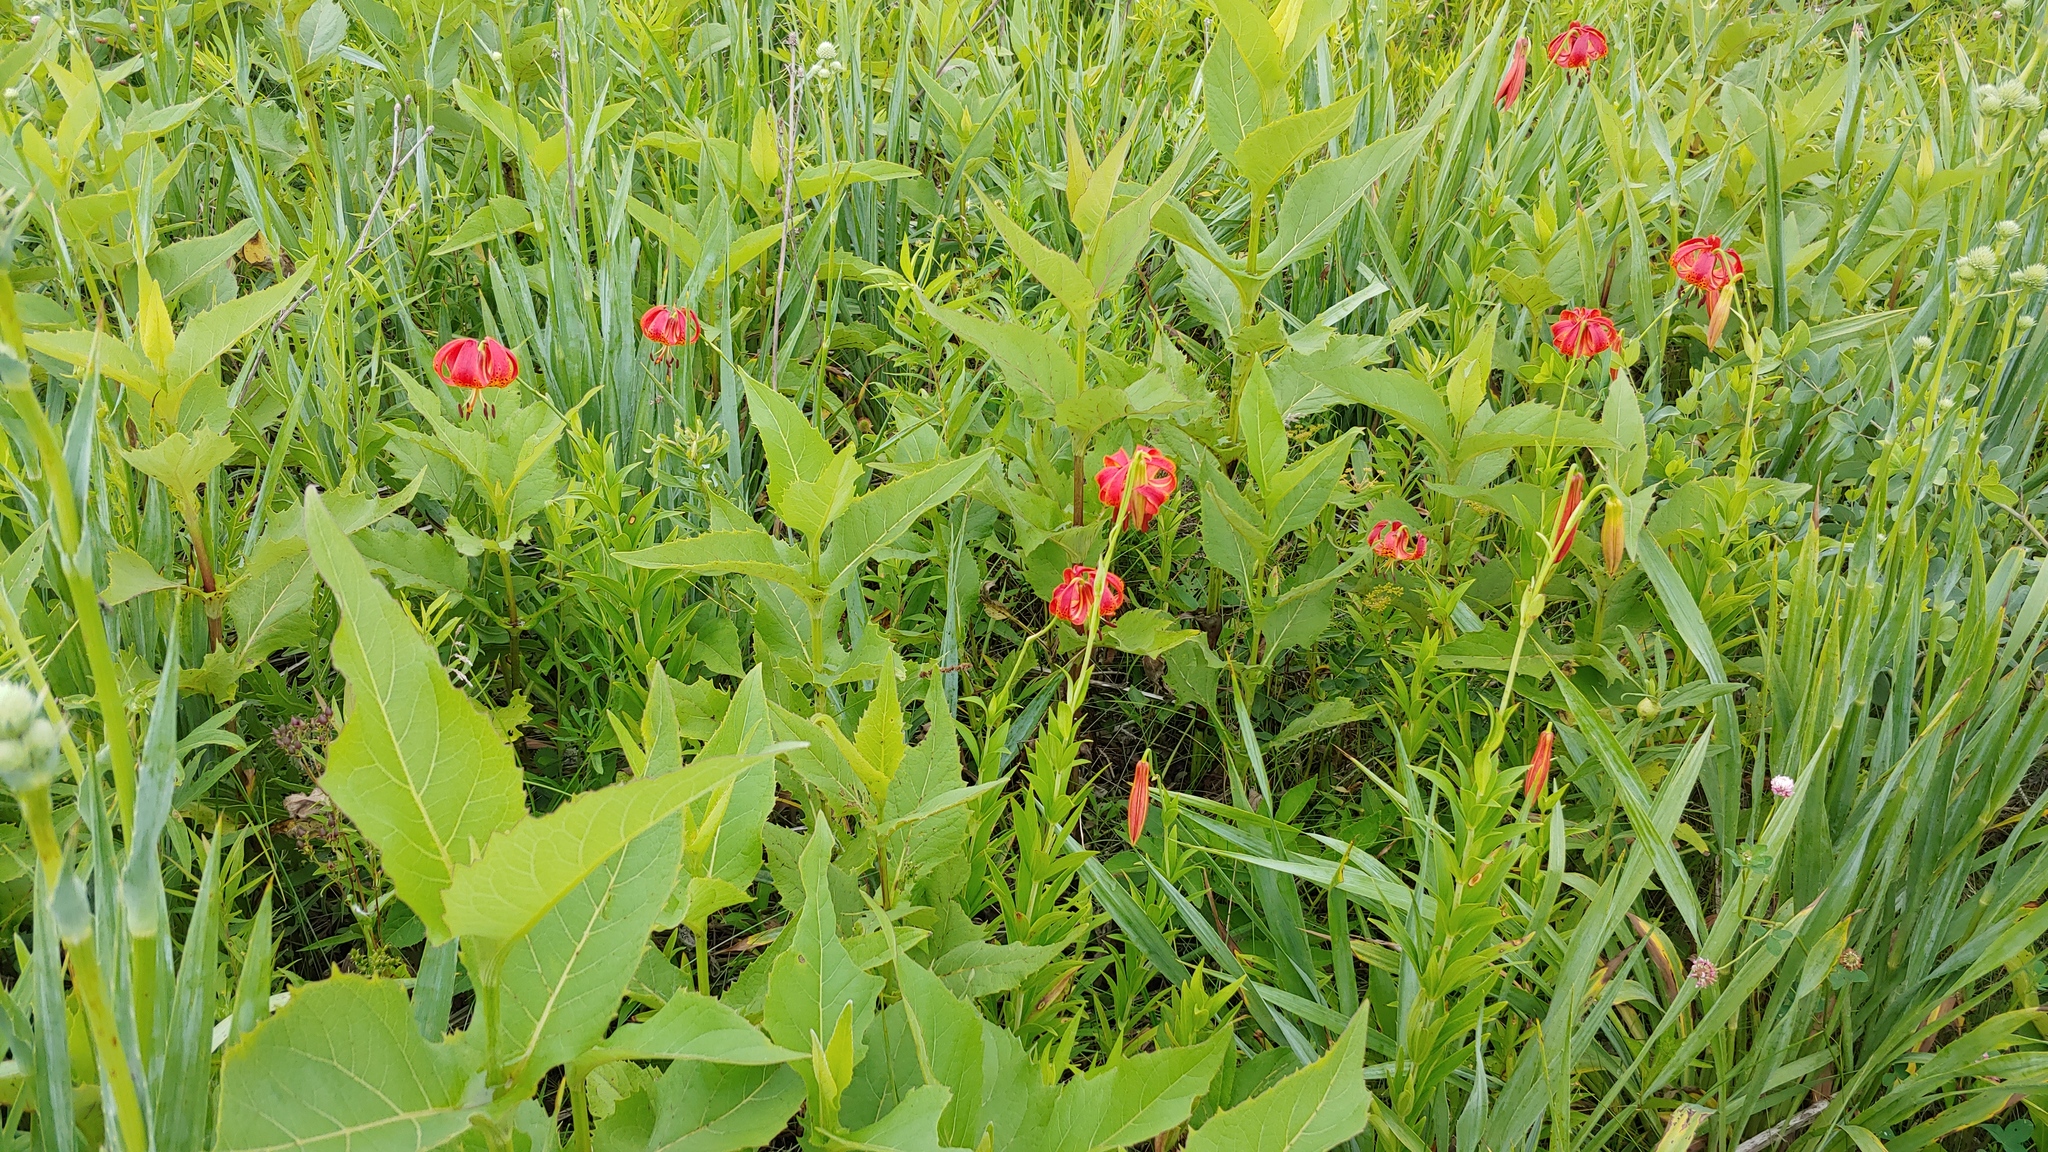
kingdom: Plantae
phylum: Tracheophyta
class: Liliopsida
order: Liliales
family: Liliaceae
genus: Lilium
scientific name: Lilium michiganense
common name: Michigan lily
